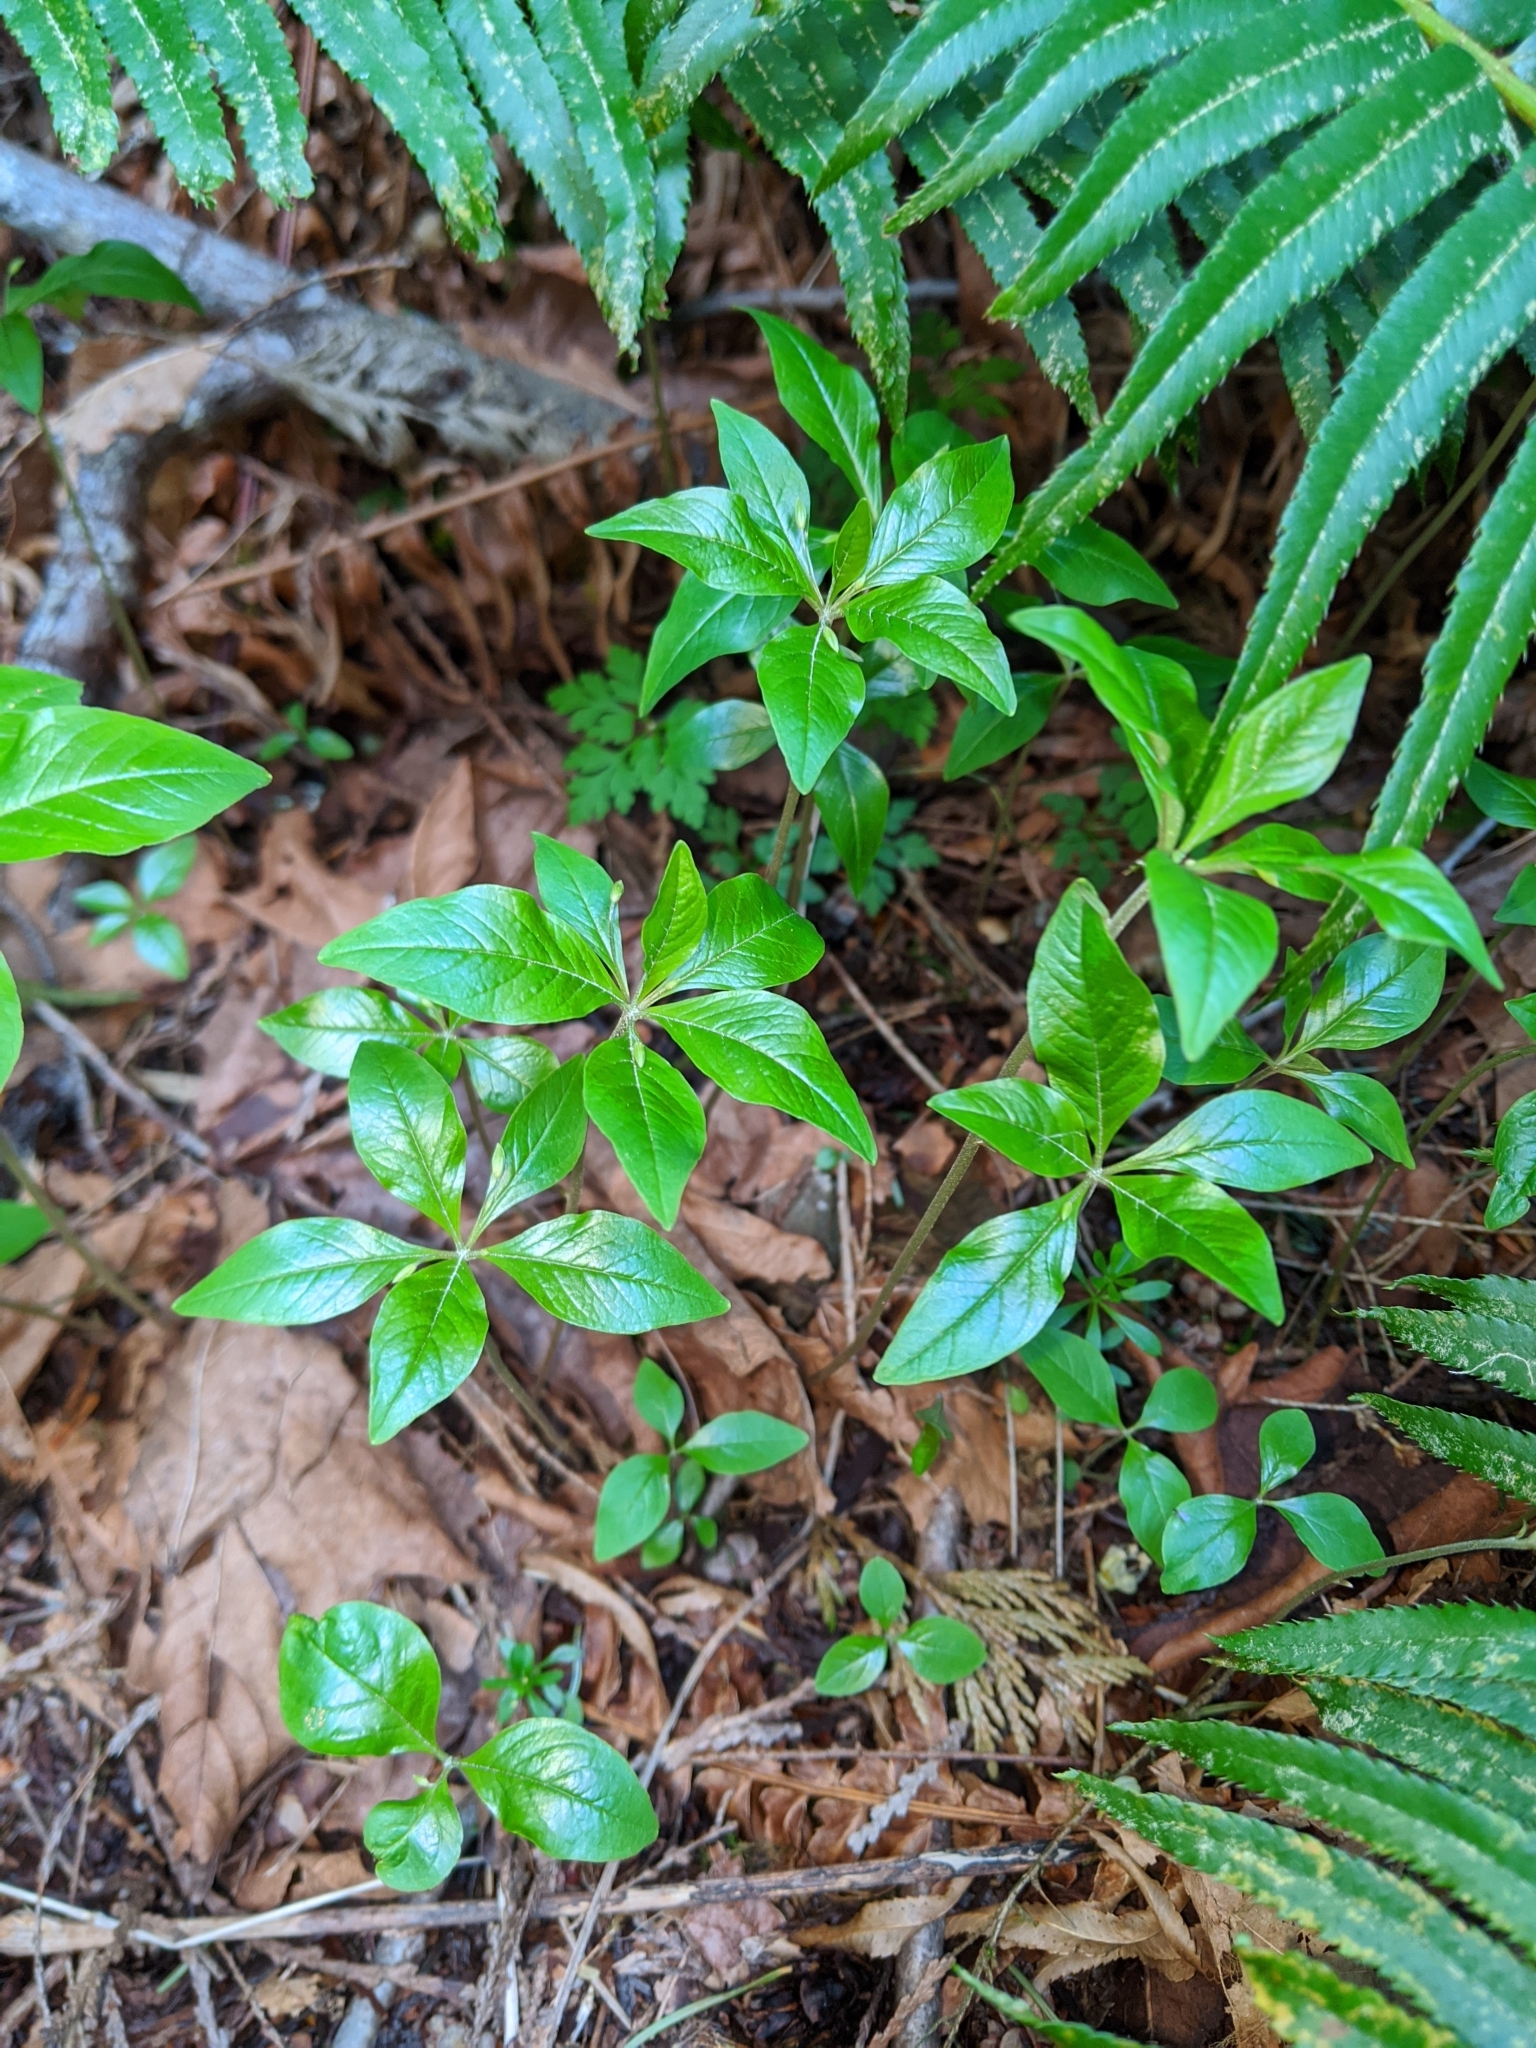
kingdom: Plantae
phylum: Tracheophyta
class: Magnoliopsida
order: Ericales
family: Primulaceae
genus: Lysimachia
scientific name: Lysimachia latifolia
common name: Pacific starflower
